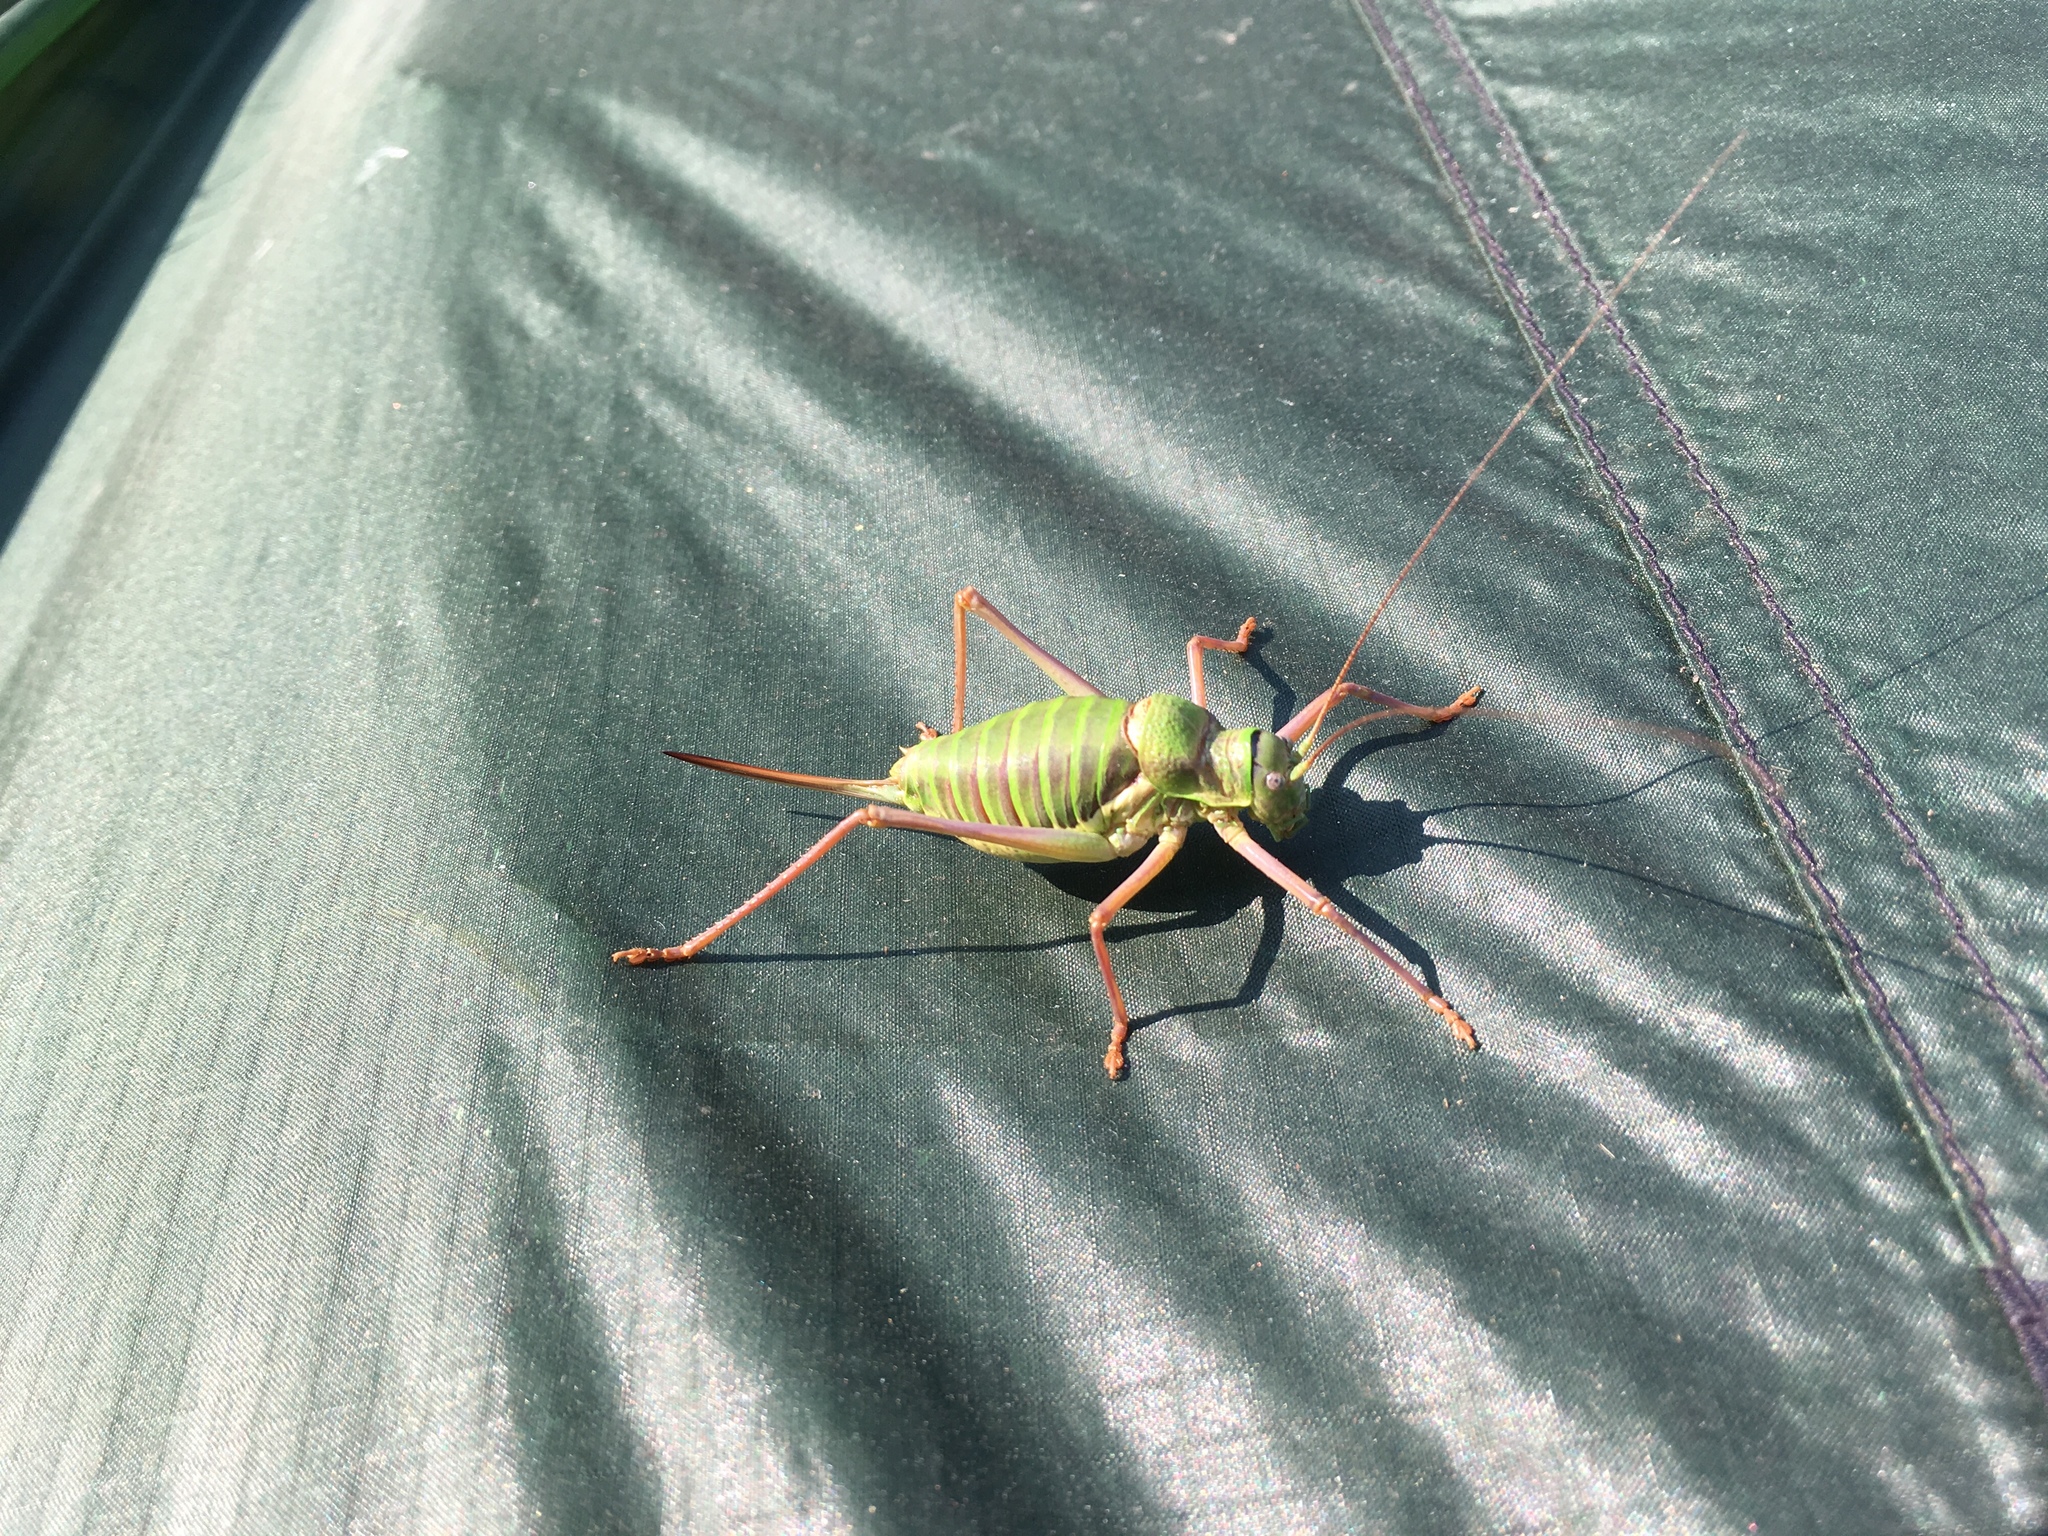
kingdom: Animalia
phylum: Arthropoda
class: Insecta
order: Orthoptera
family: Tettigoniidae
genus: Ephippiger
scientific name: Ephippiger diurnus
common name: Western saddle bush-cricket
